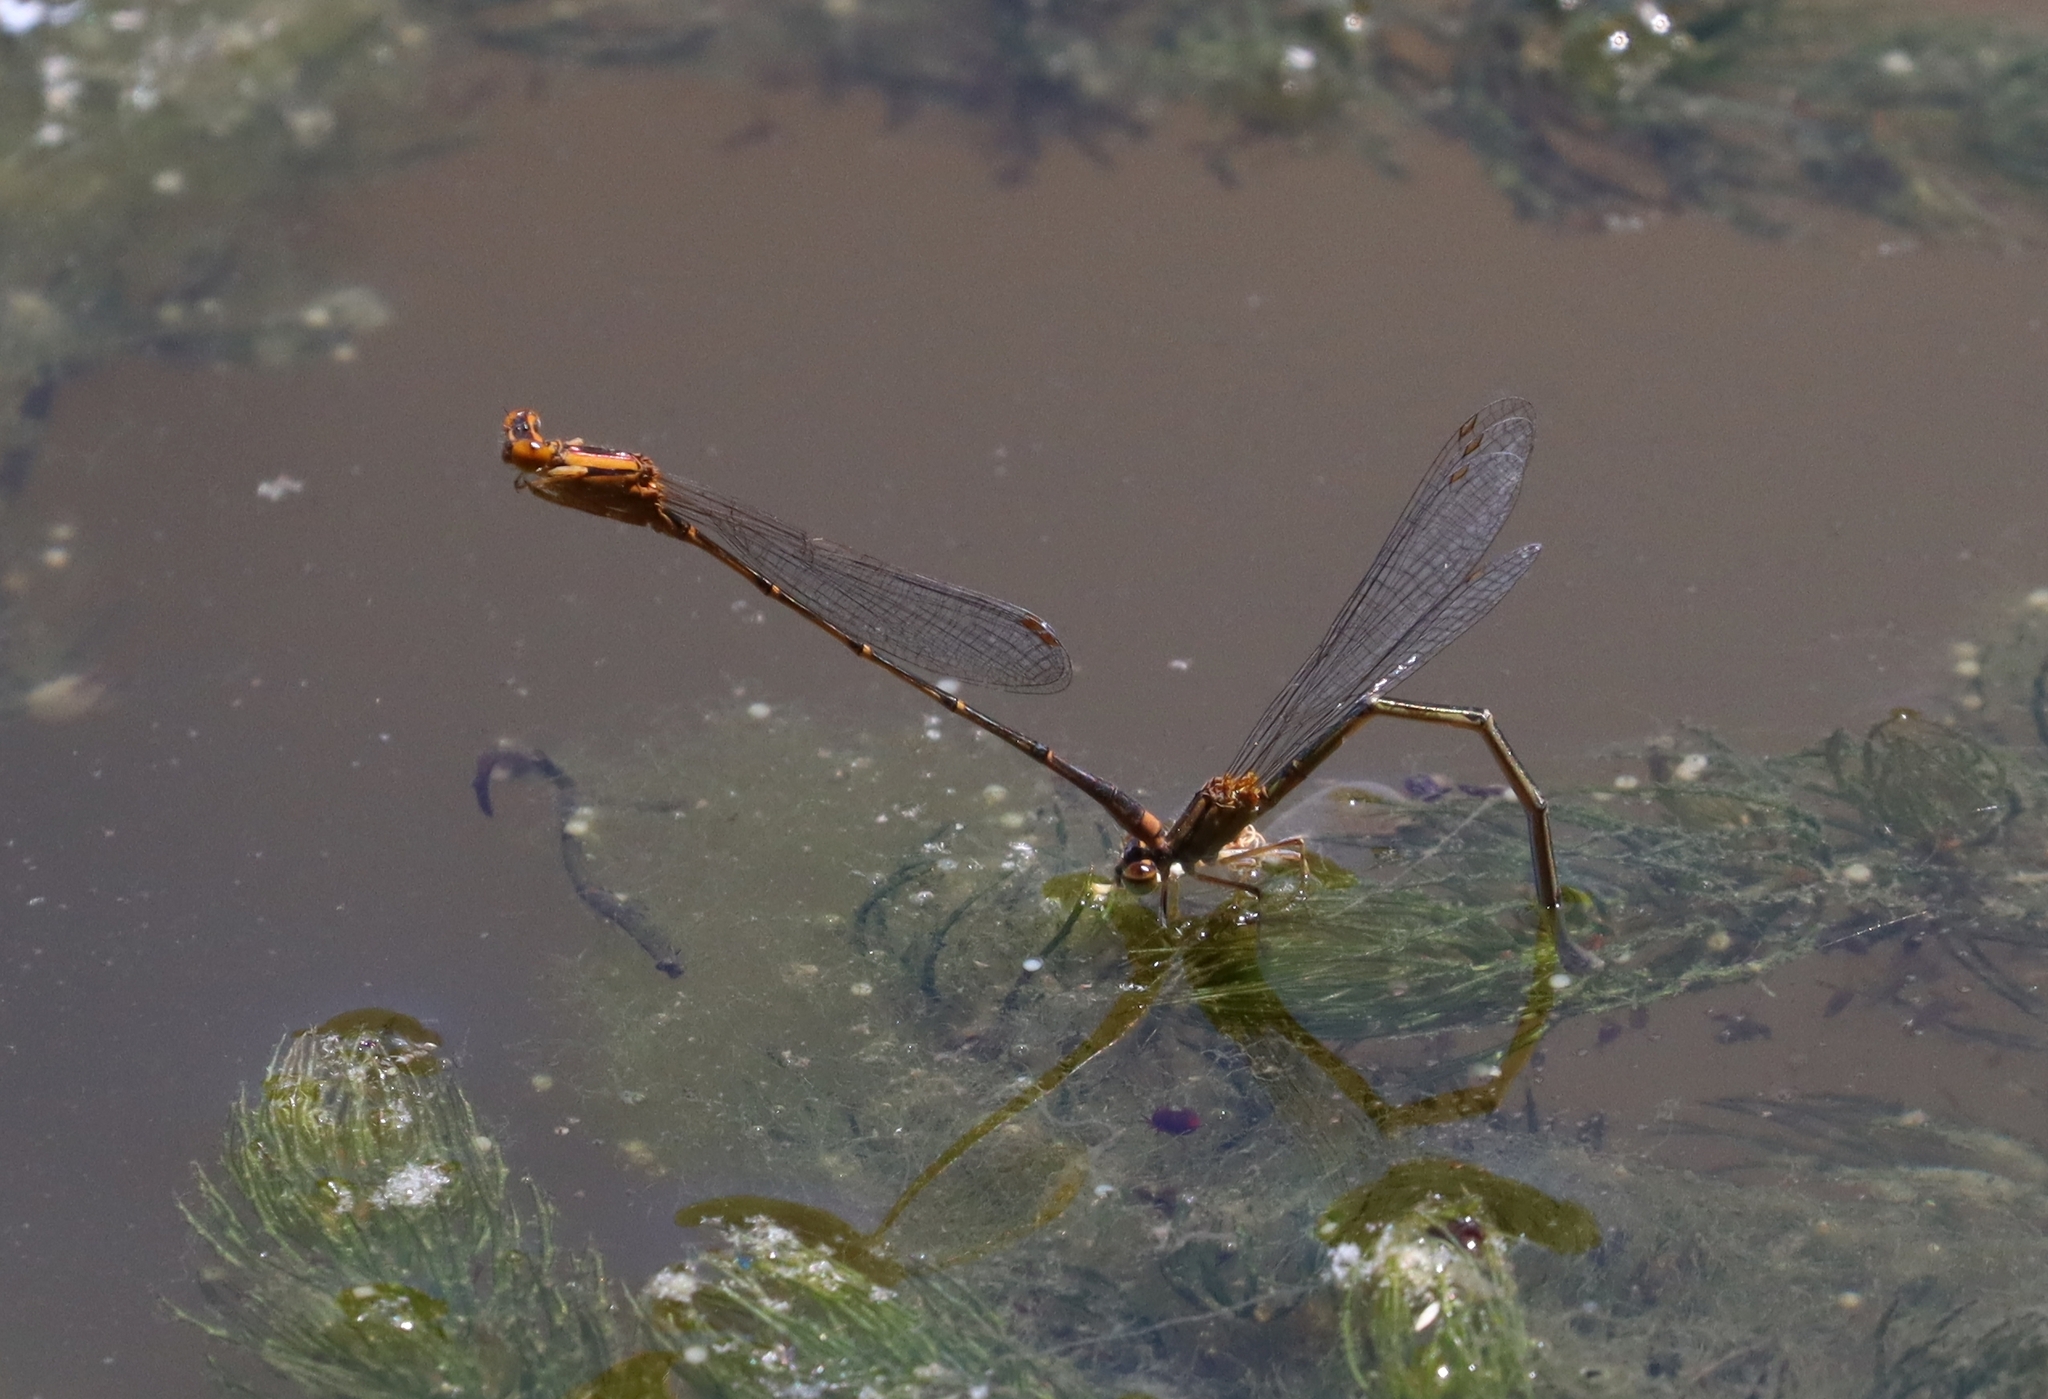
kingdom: Animalia
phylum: Arthropoda
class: Insecta
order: Odonata
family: Coenagrionidae
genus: Enallagma
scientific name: Enallagma signatum
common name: Orange bluet
